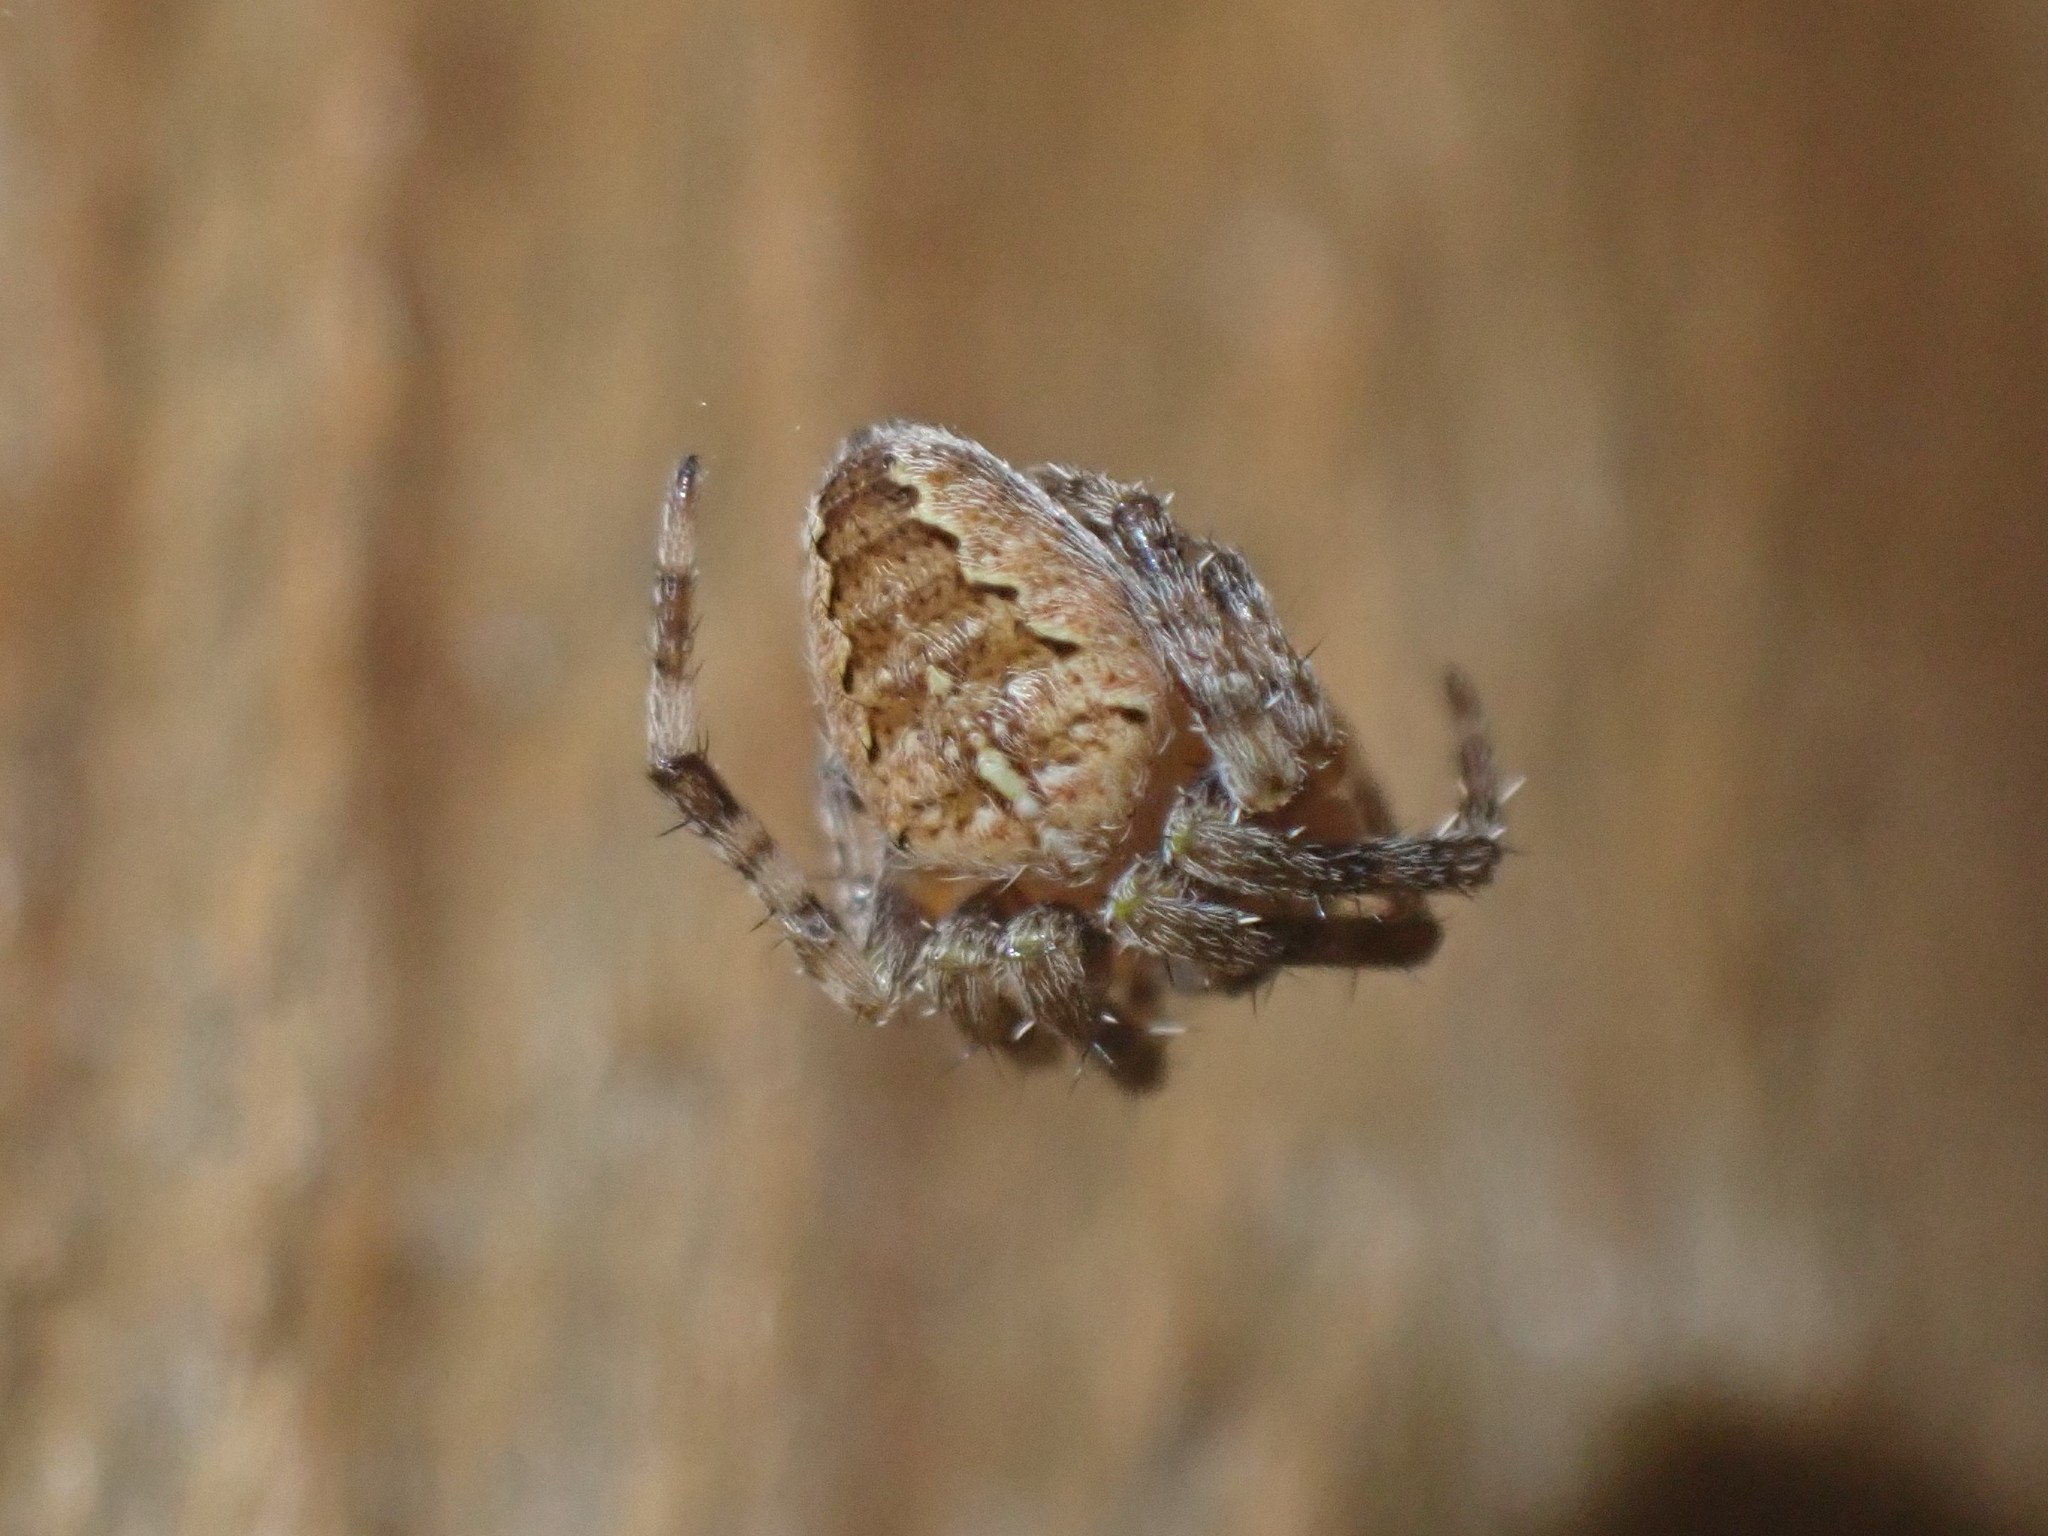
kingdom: Animalia
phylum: Arthropoda
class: Arachnida
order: Araneae
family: Araneidae
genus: Araneus
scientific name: Araneus diadematus
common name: Cross orbweaver
